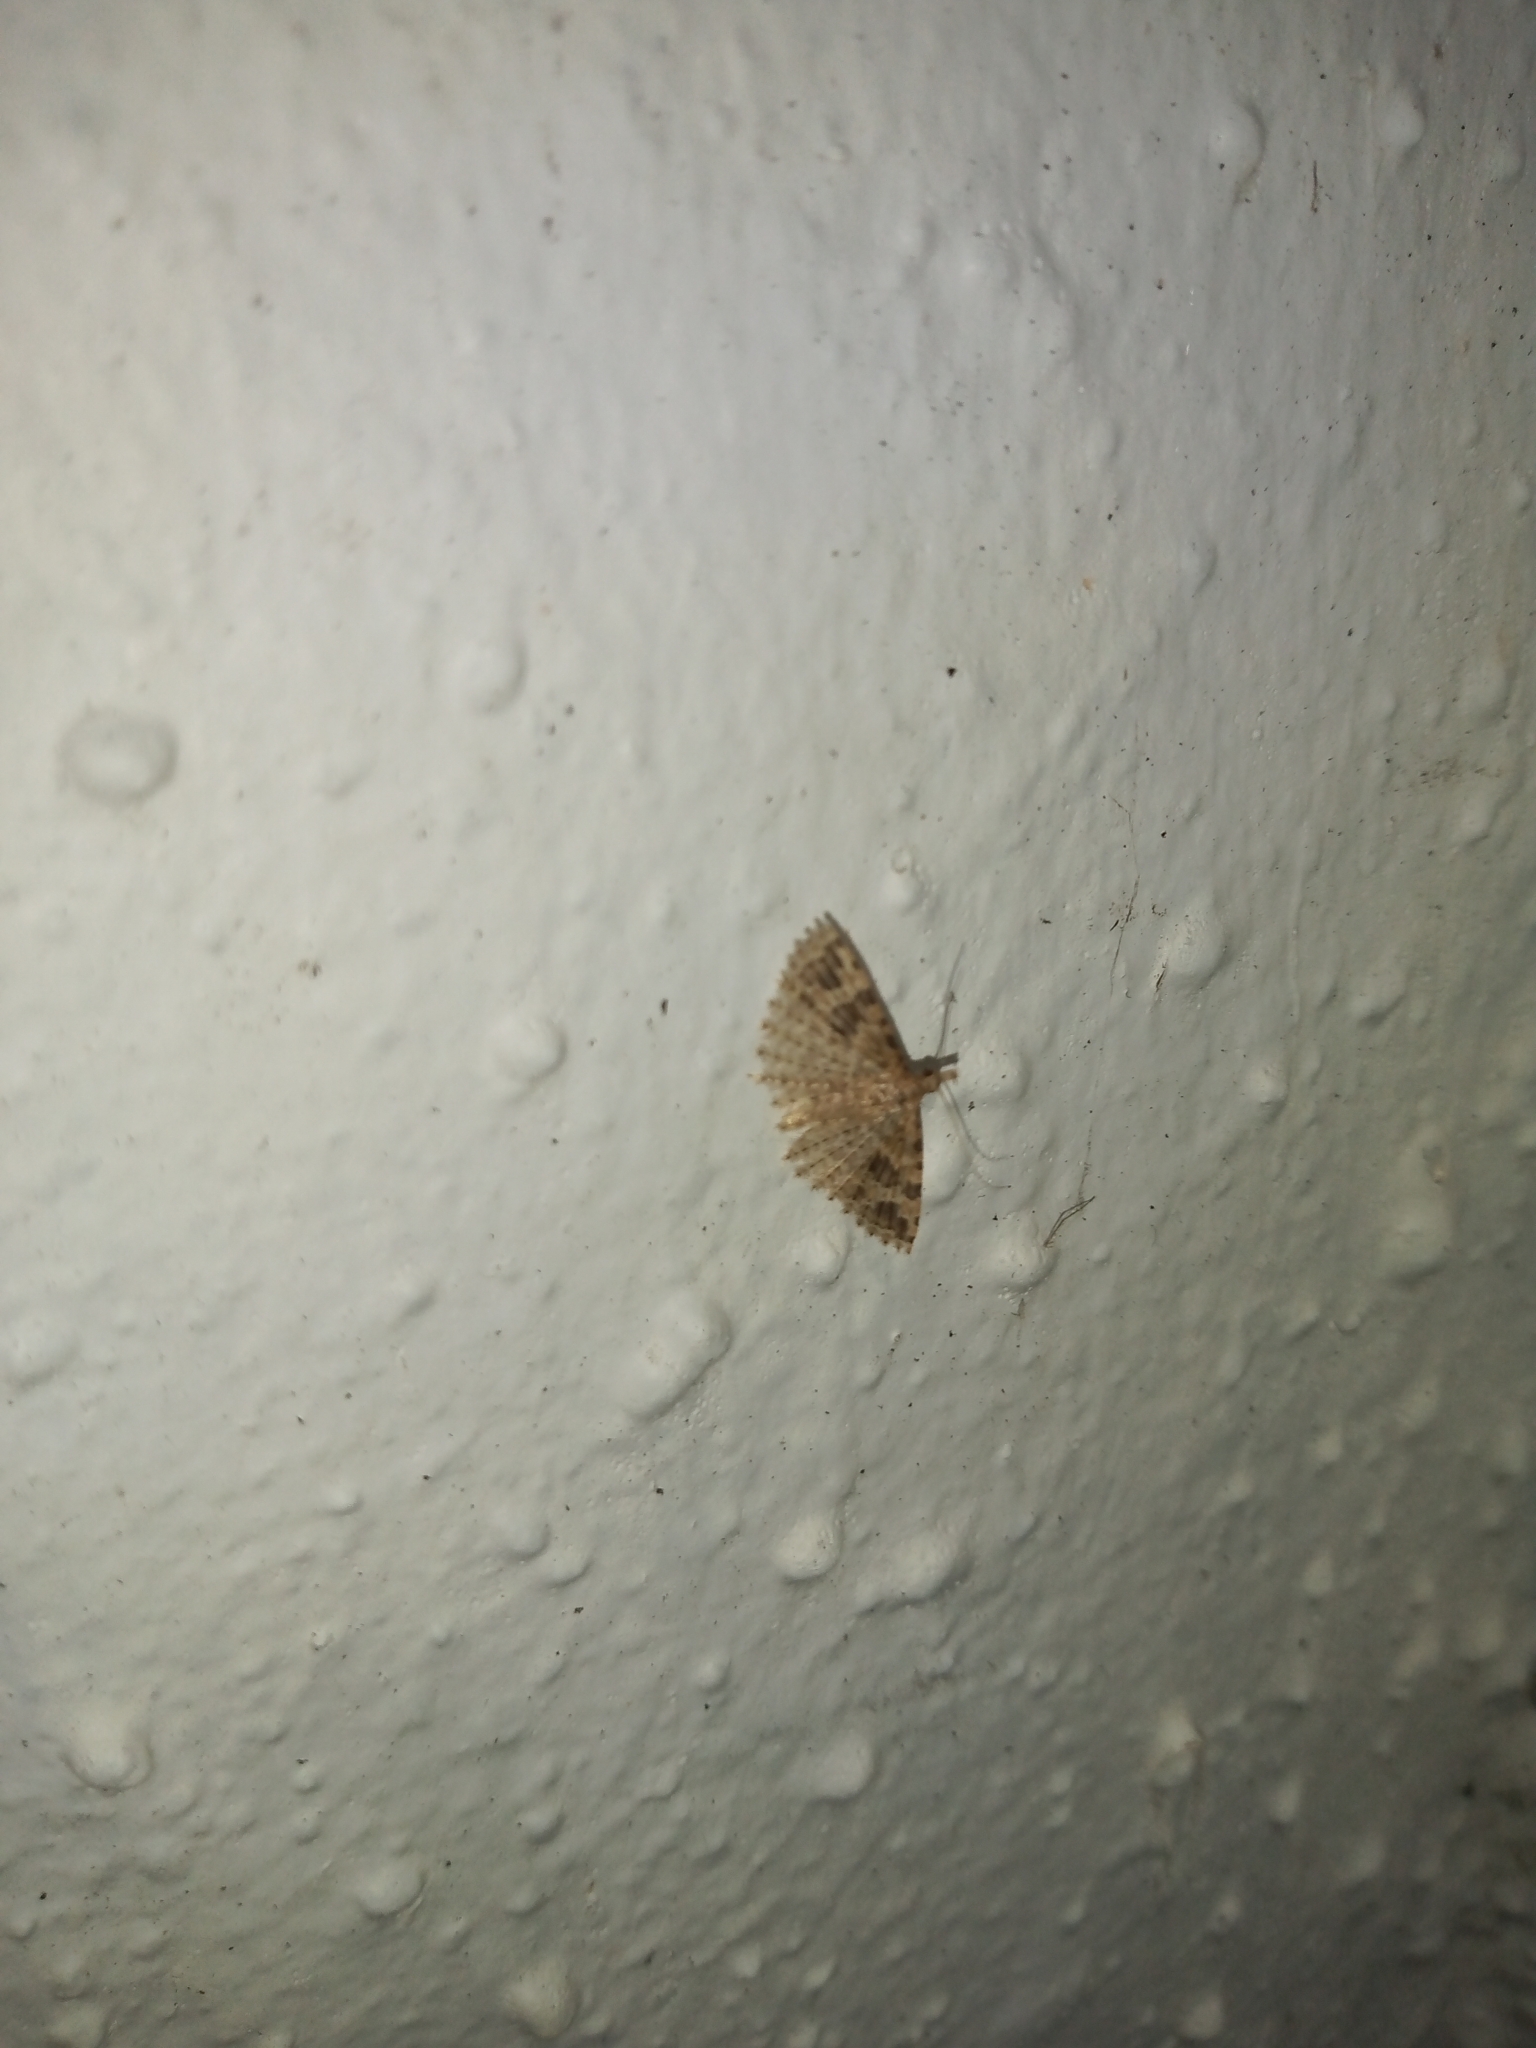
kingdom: Animalia
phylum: Arthropoda
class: Insecta
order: Lepidoptera
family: Alucitidae
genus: Alucita
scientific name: Alucita hexadactyla
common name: Twenty-plume moth
